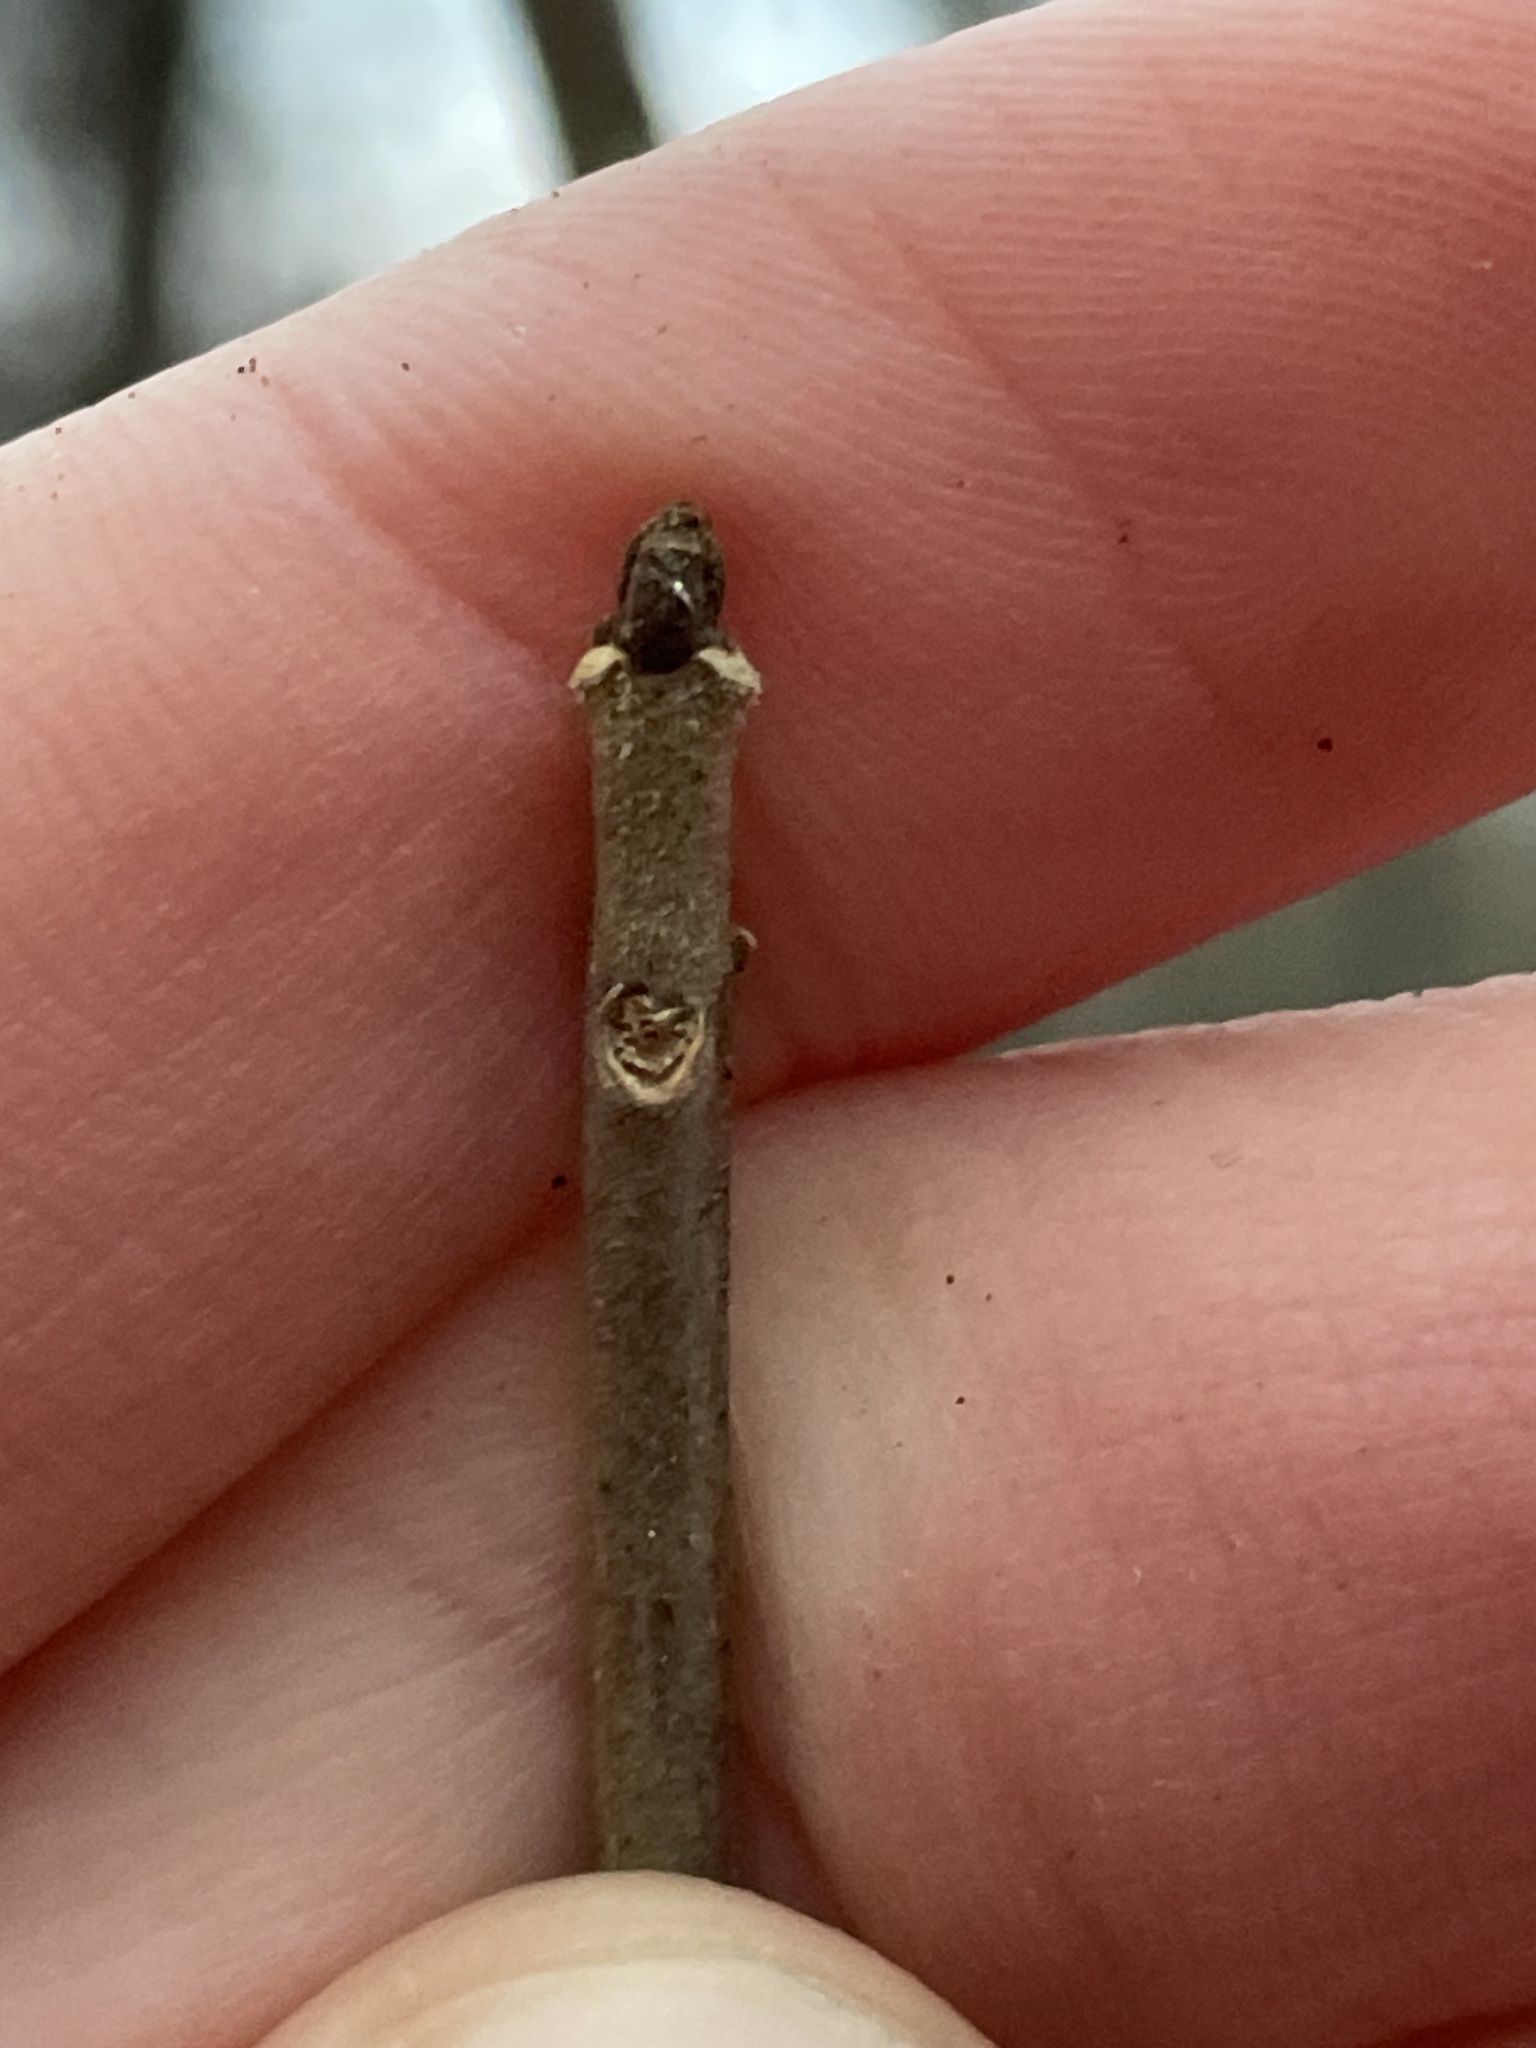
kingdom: Plantae
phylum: Tracheophyta
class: Magnoliopsida
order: Lamiales
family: Oleaceae
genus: Fraxinus
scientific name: Fraxinus pennsylvanica
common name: Green ash
